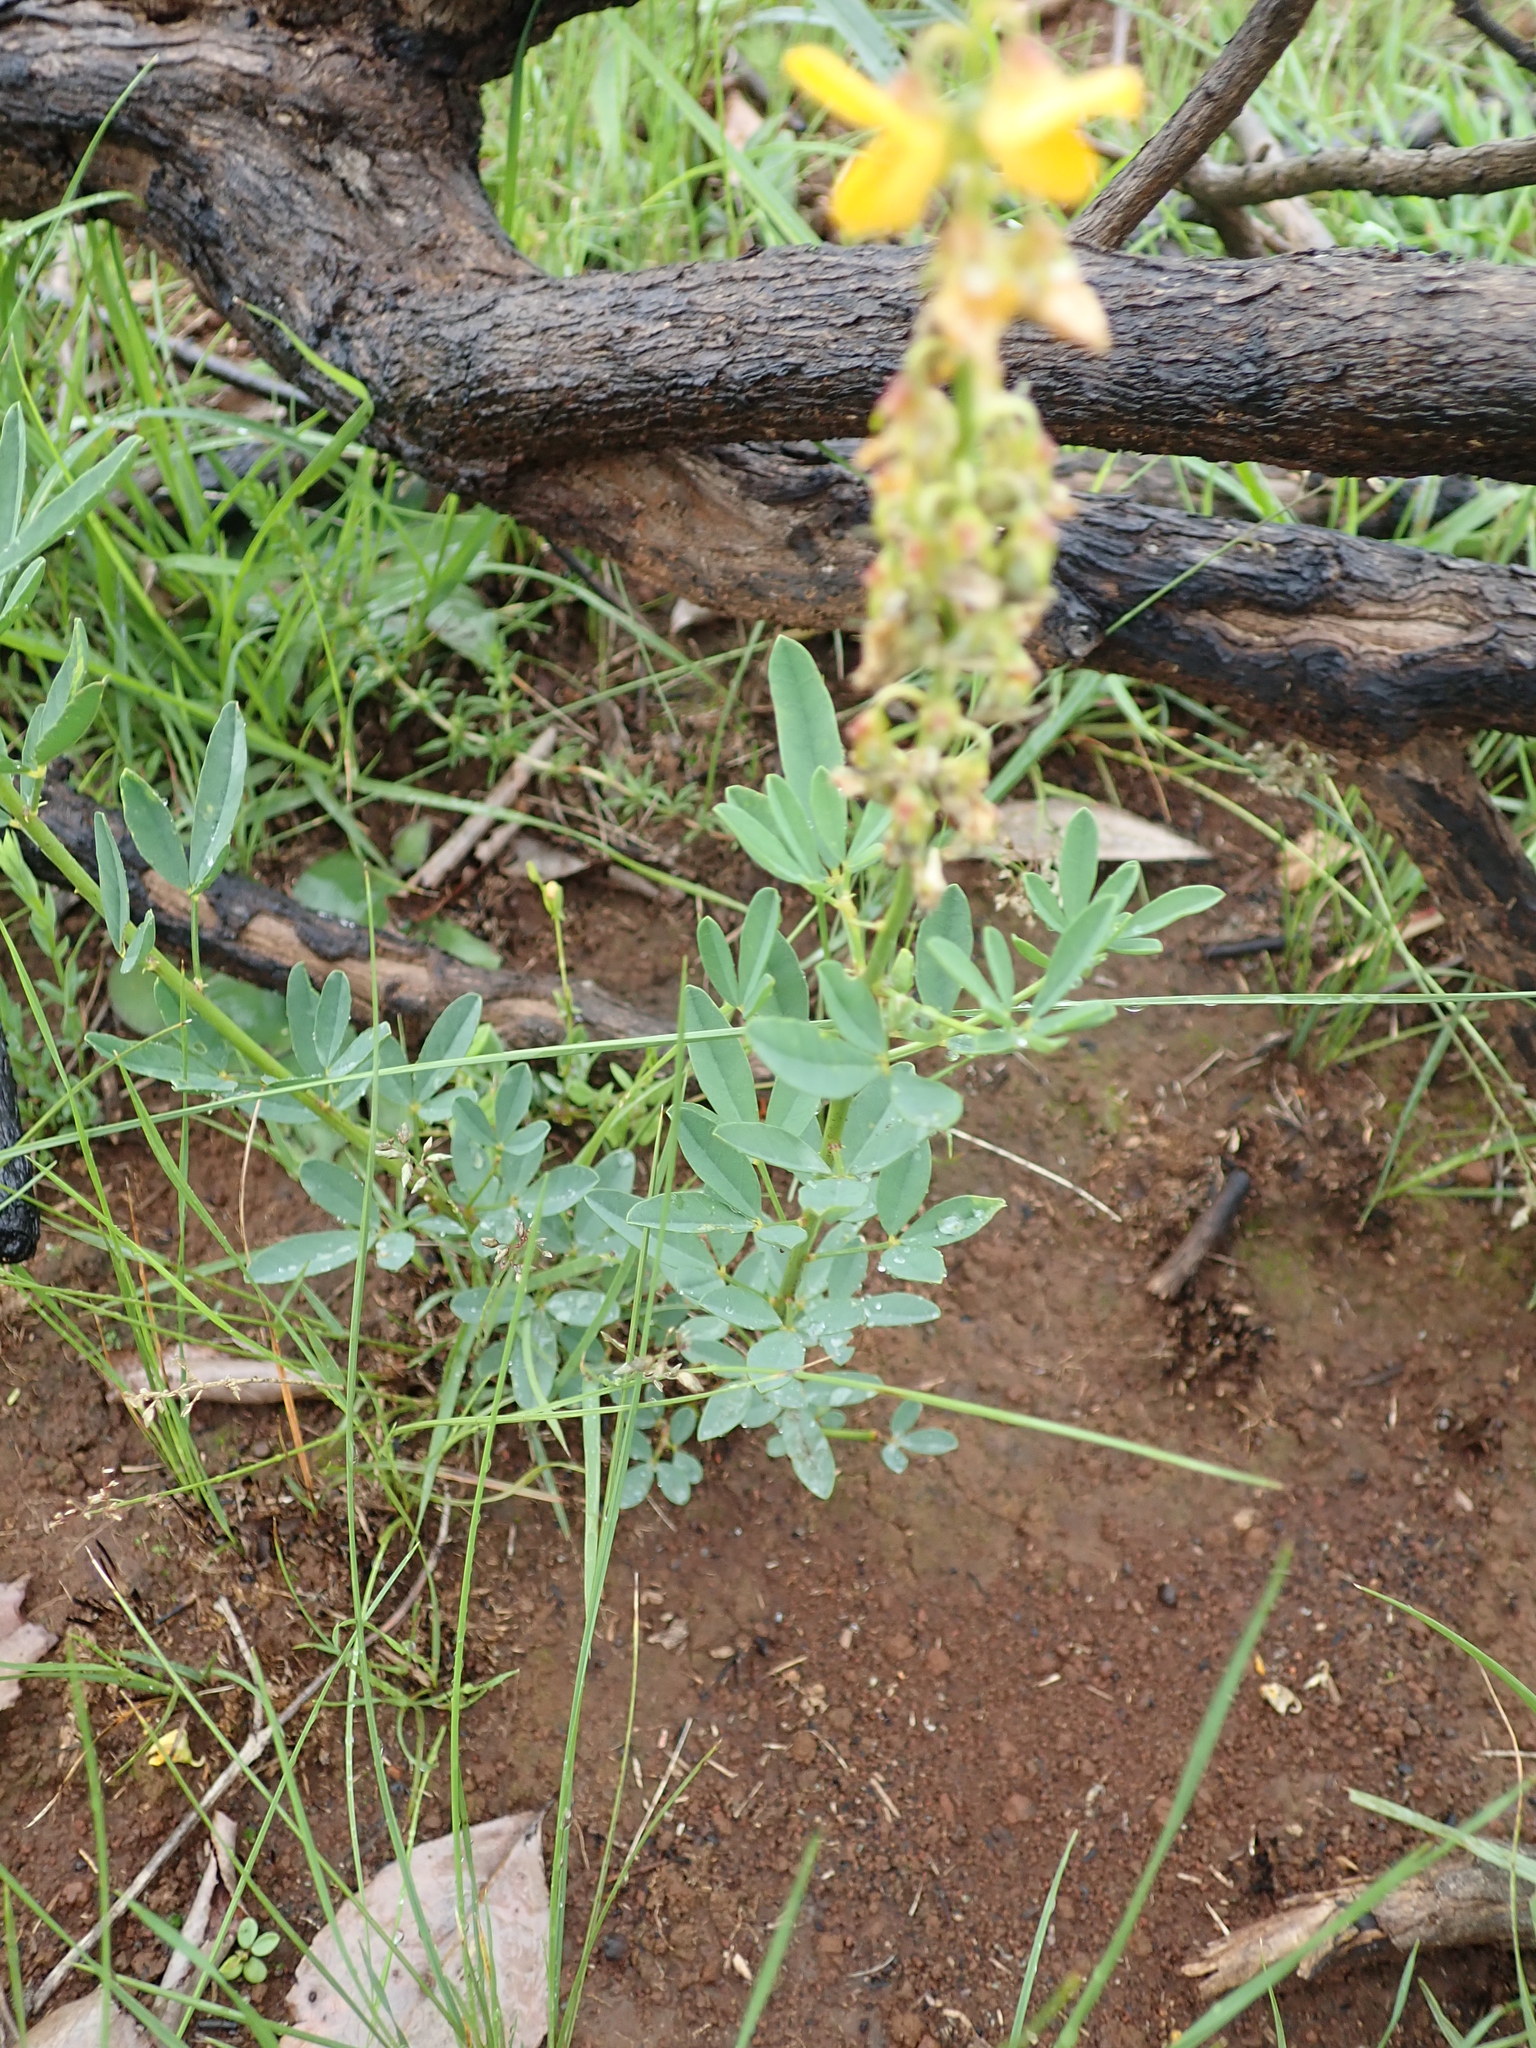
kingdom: Plantae
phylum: Tracheophyta
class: Magnoliopsida
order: Fabales
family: Fabaceae
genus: Crotalaria
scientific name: Crotalaria globifera
